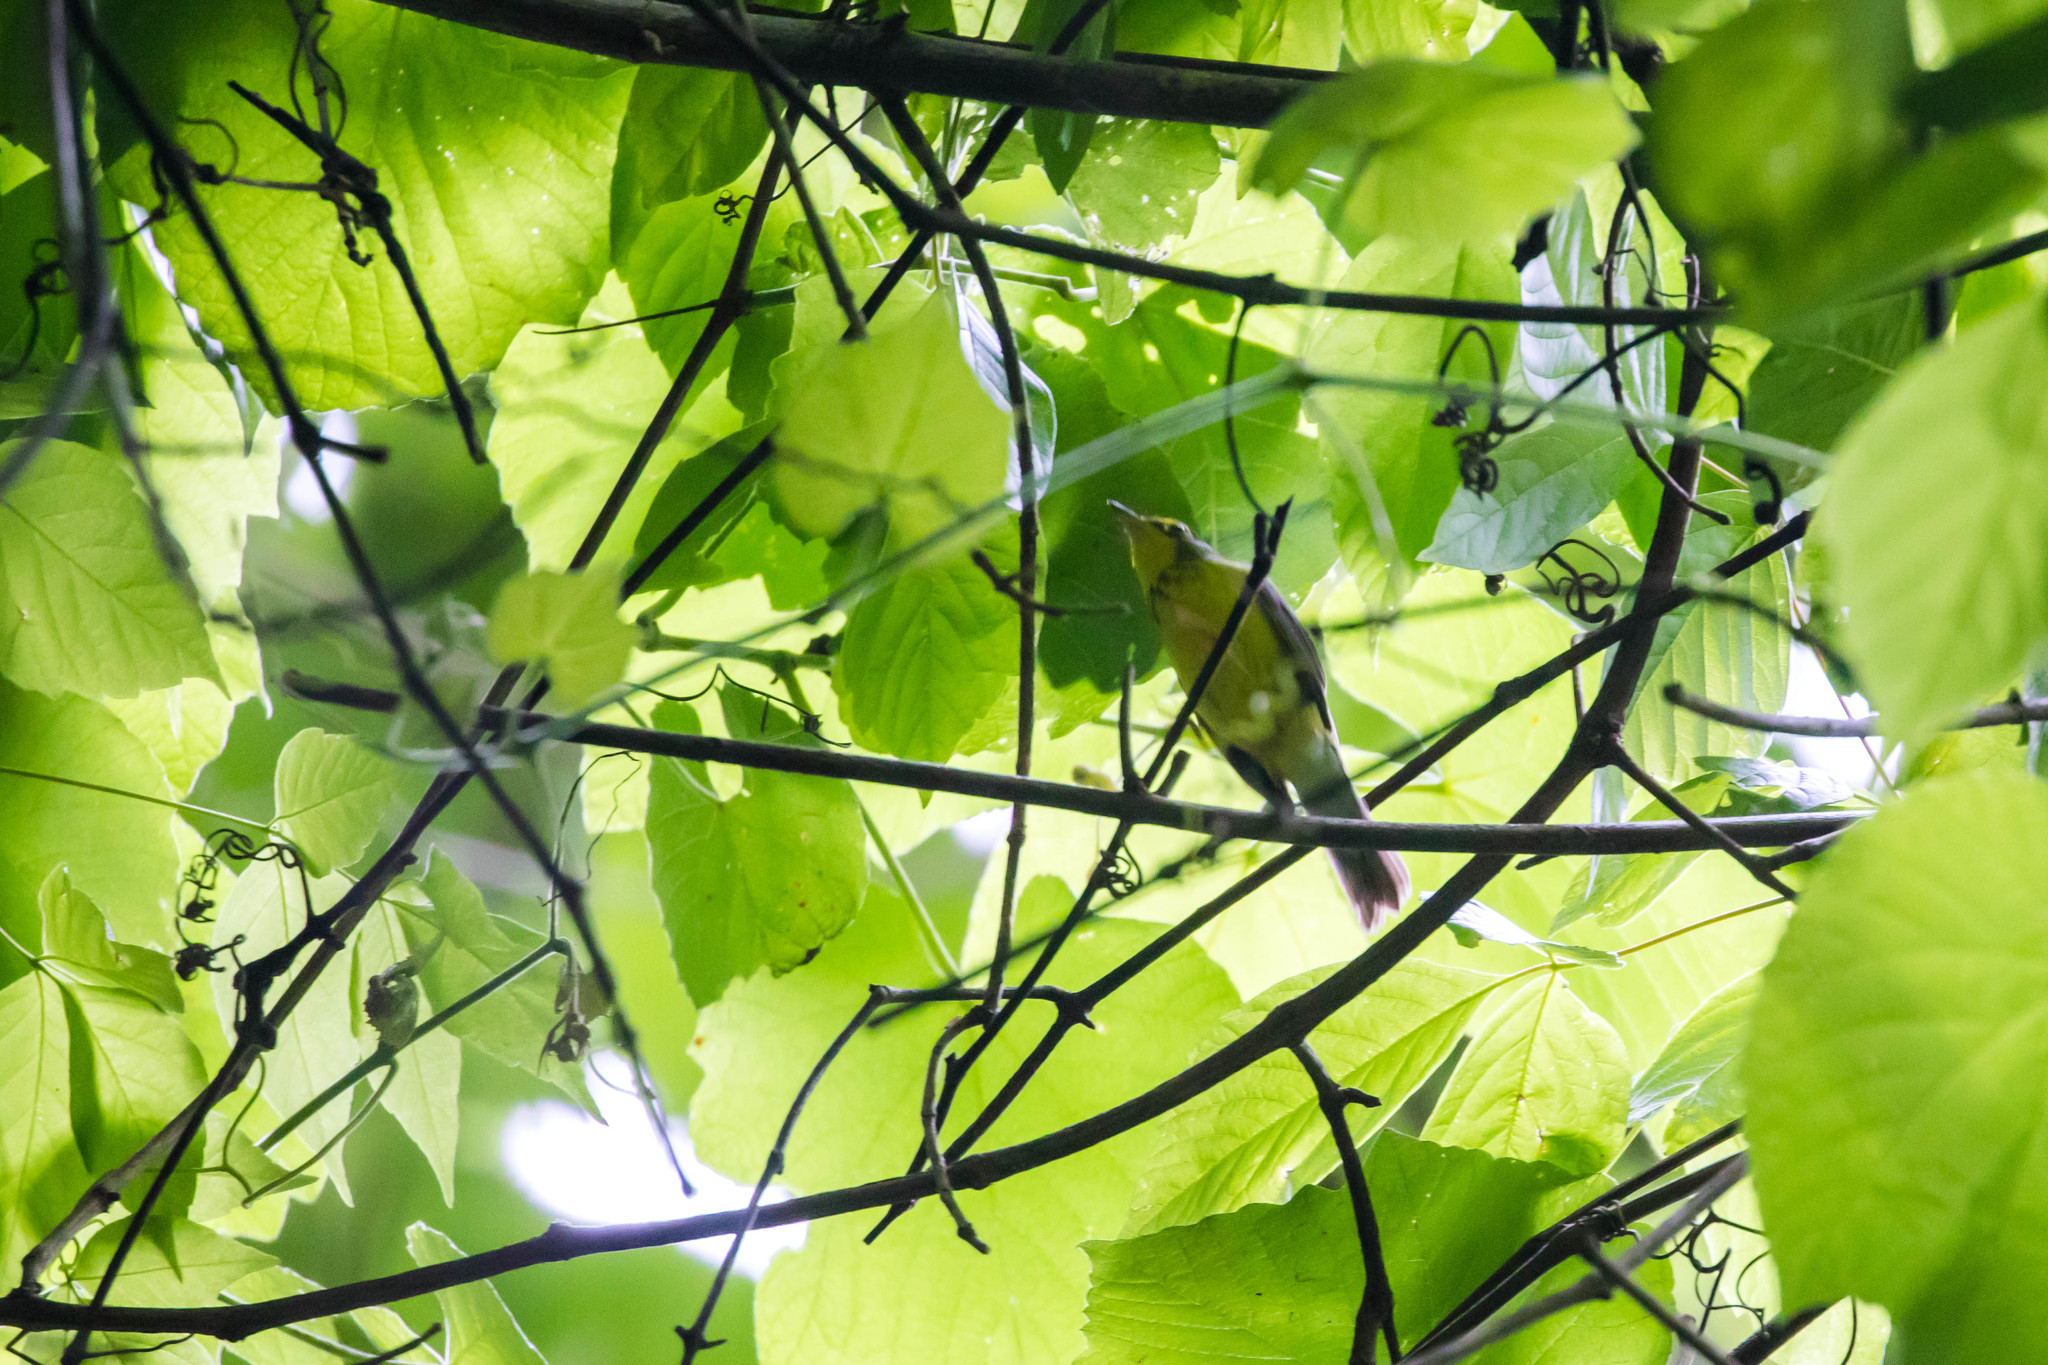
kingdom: Animalia
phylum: Chordata
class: Aves
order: Passeriformes
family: Parulidae
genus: Cardellina
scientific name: Cardellina canadensis
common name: Canada warbler
